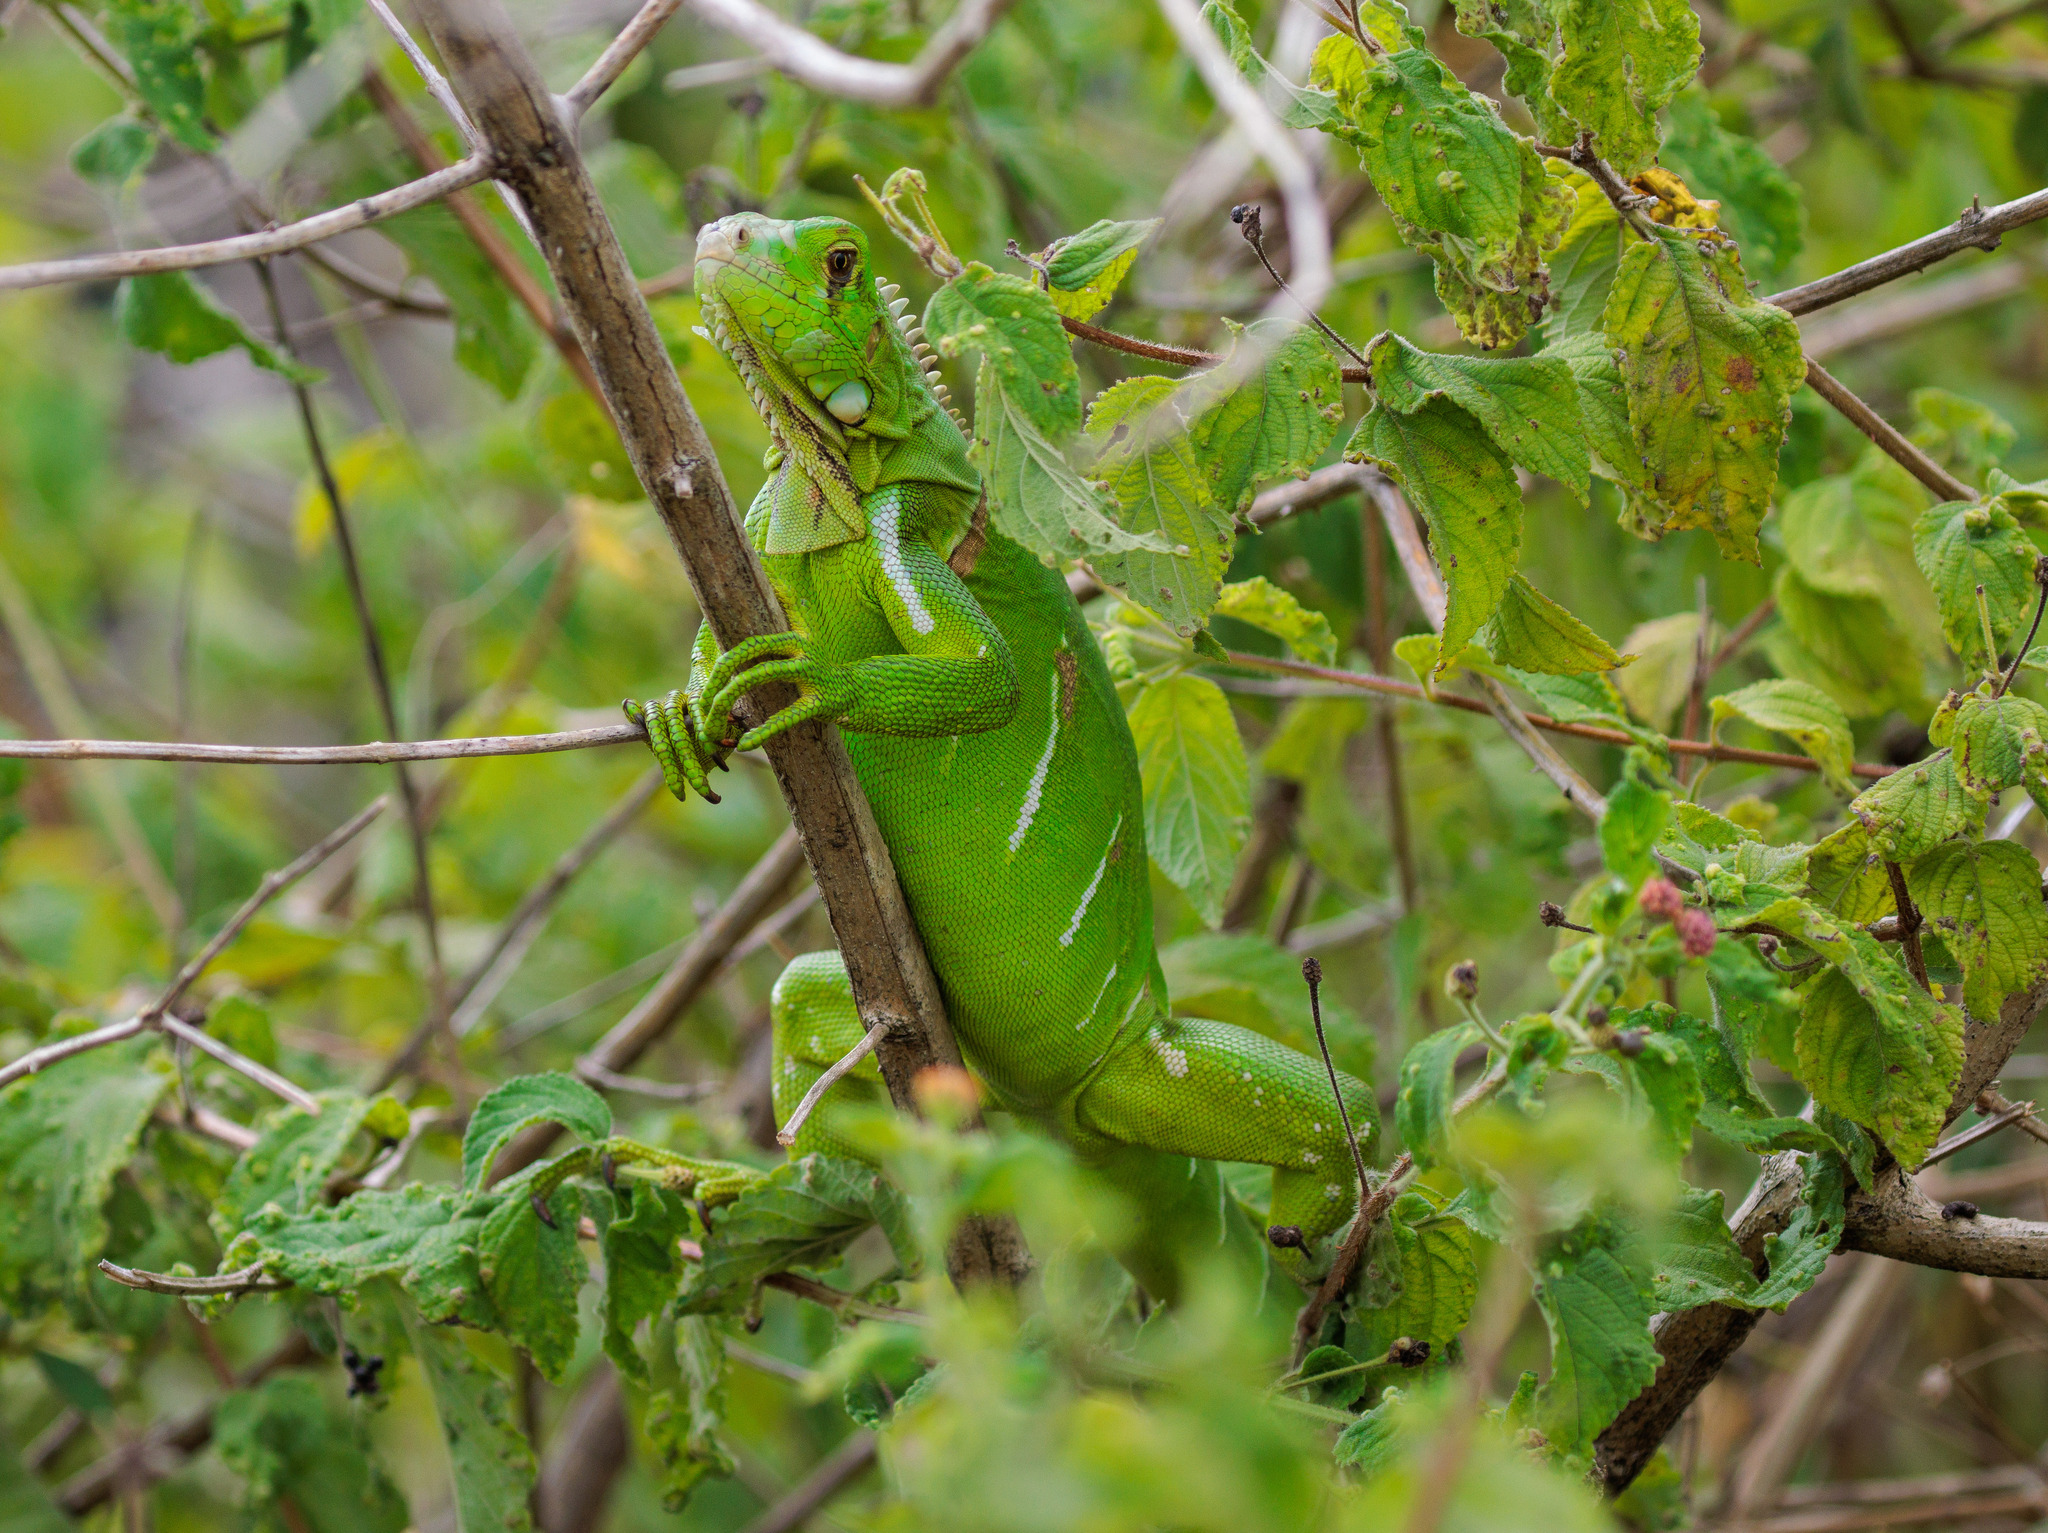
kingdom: Animalia
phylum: Chordata
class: Squamata
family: Iguanidae
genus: Iguana
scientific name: Iguana iguana
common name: Green iguana
